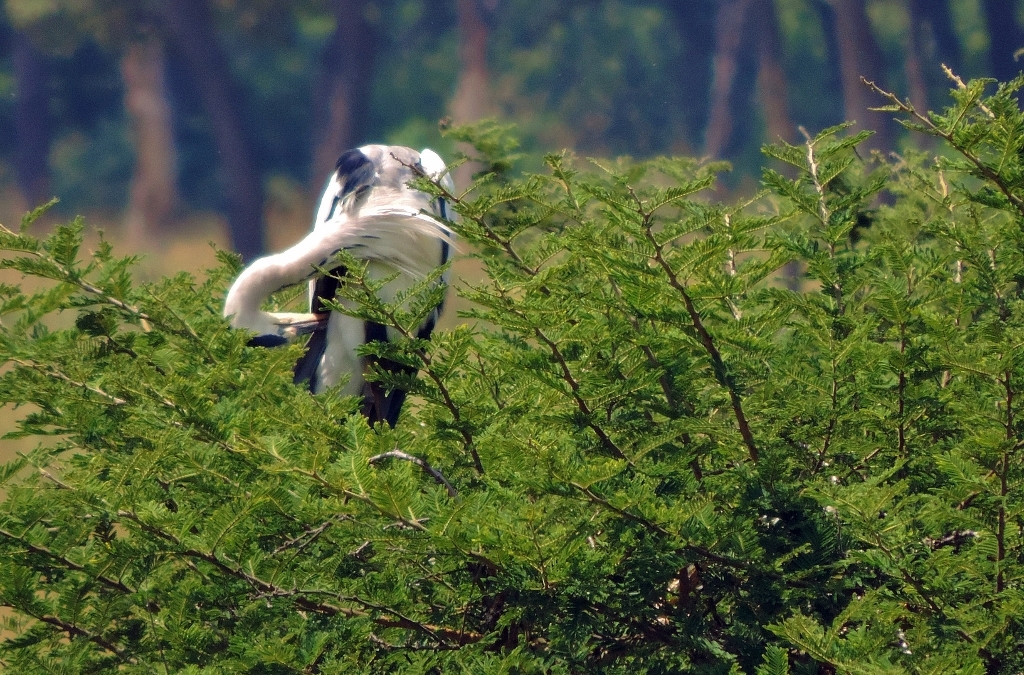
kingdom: Animalia
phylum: Chordata
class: Aves
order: Pelecaniformes
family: Ardeidae
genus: Ardea
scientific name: Ardea cinerea
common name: Grey heron
